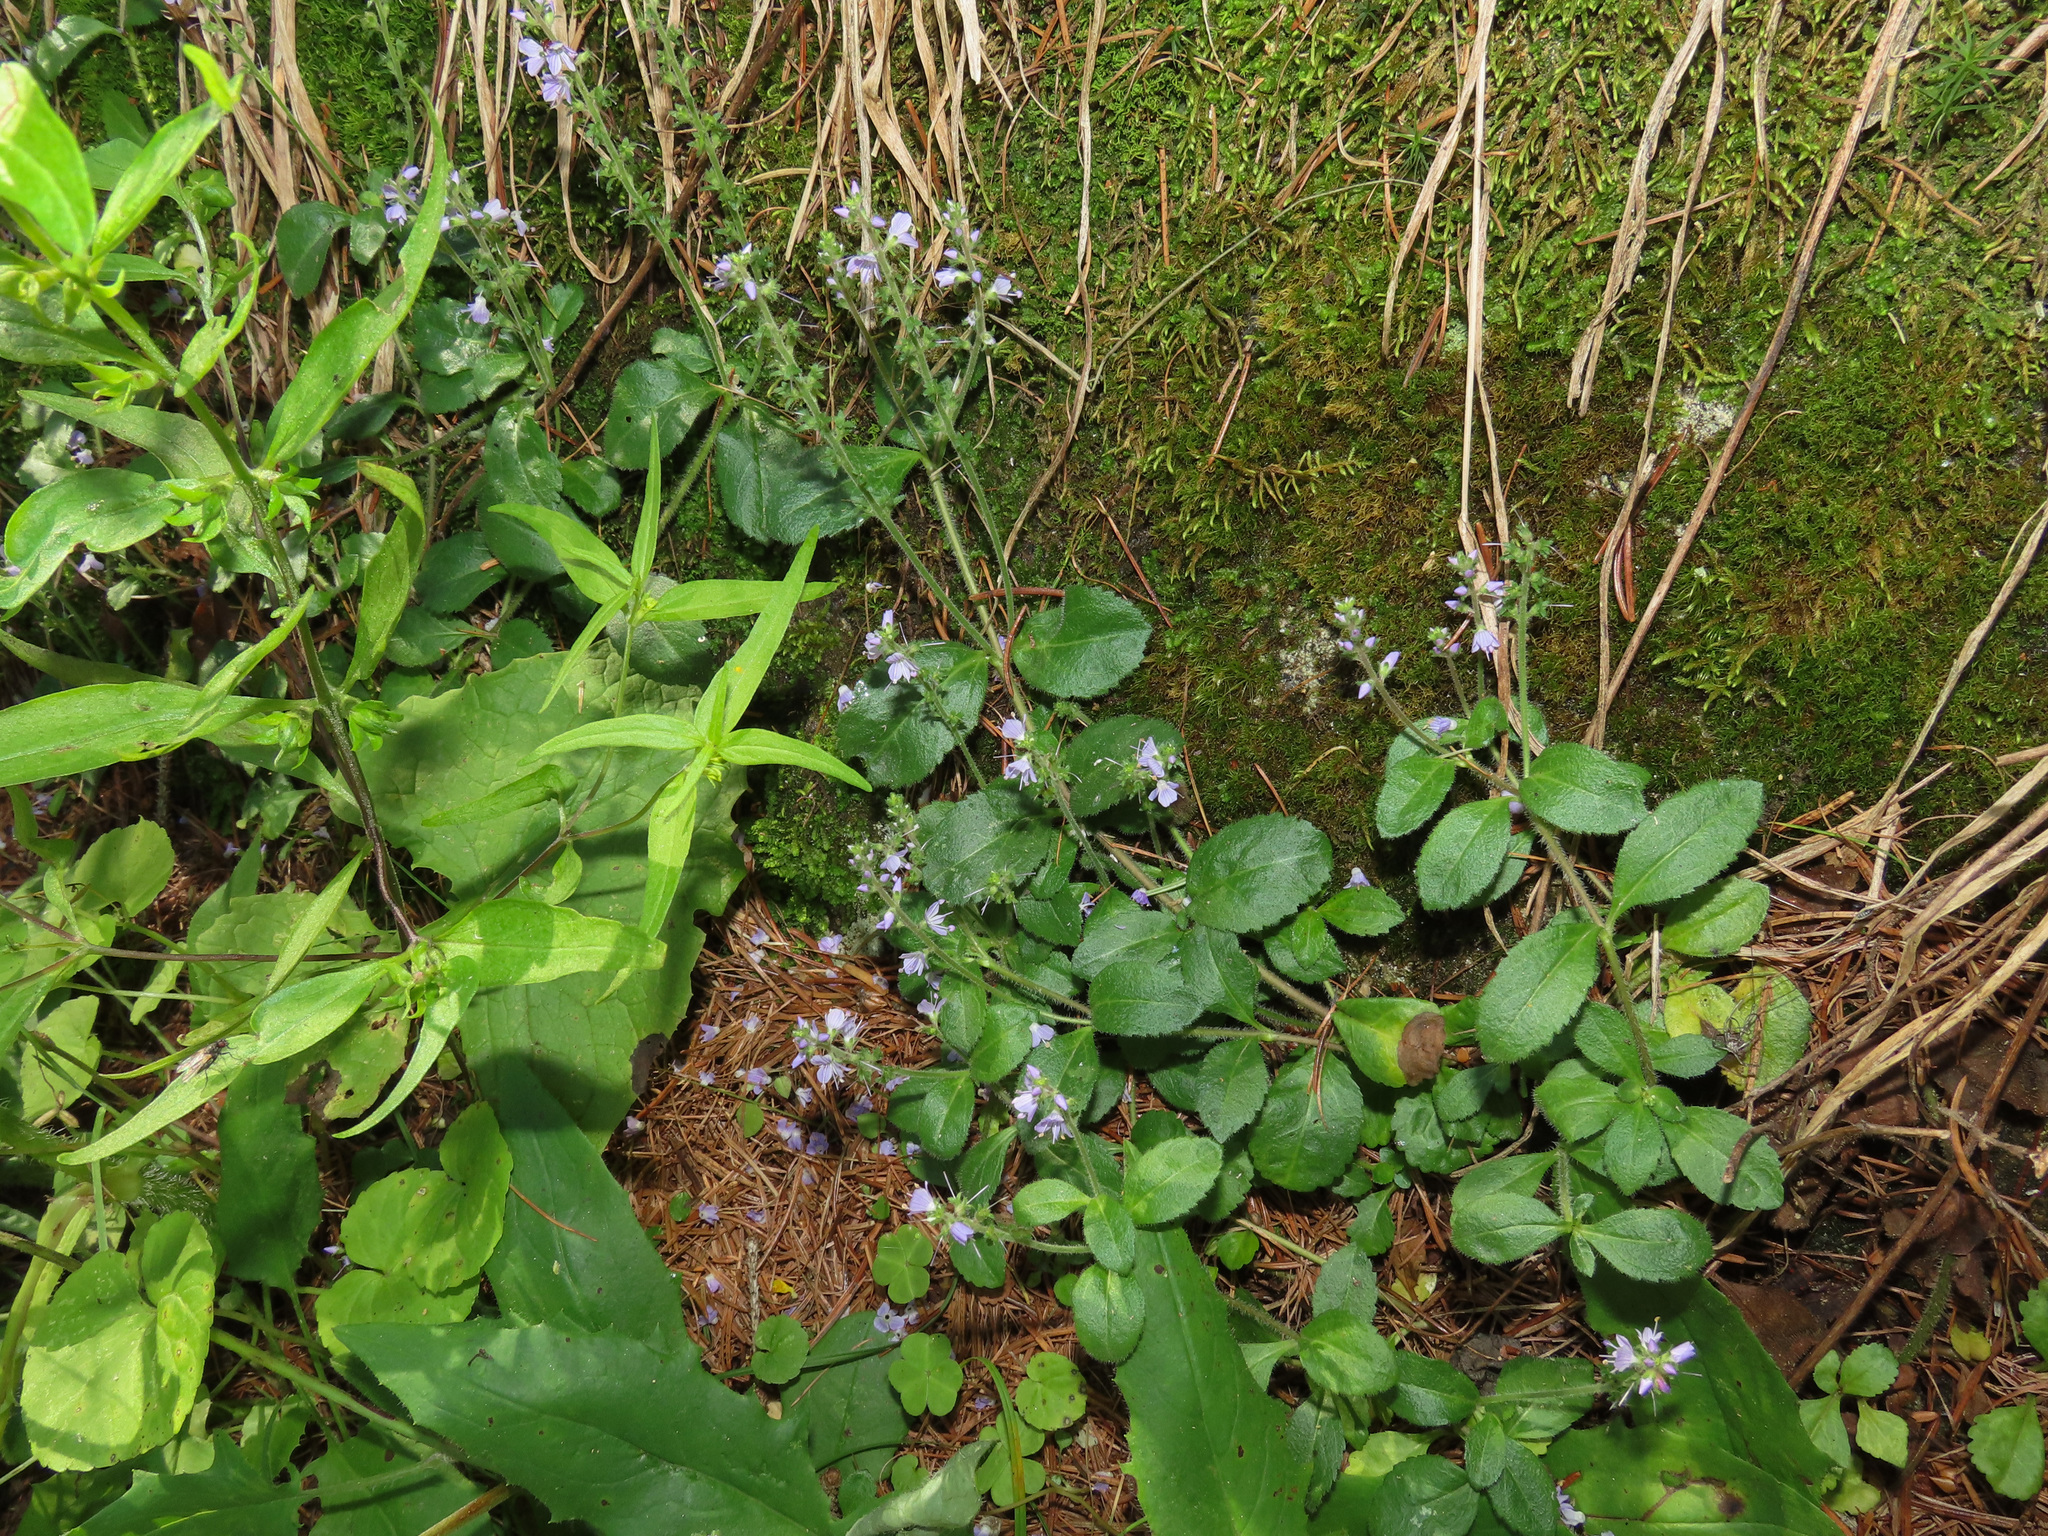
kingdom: Plantae
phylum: Tracheophyta
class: Magnoliopsida
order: Lamiales
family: Plantaginaceae
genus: Veronica
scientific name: Veronica officinalis
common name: Common speedwell
